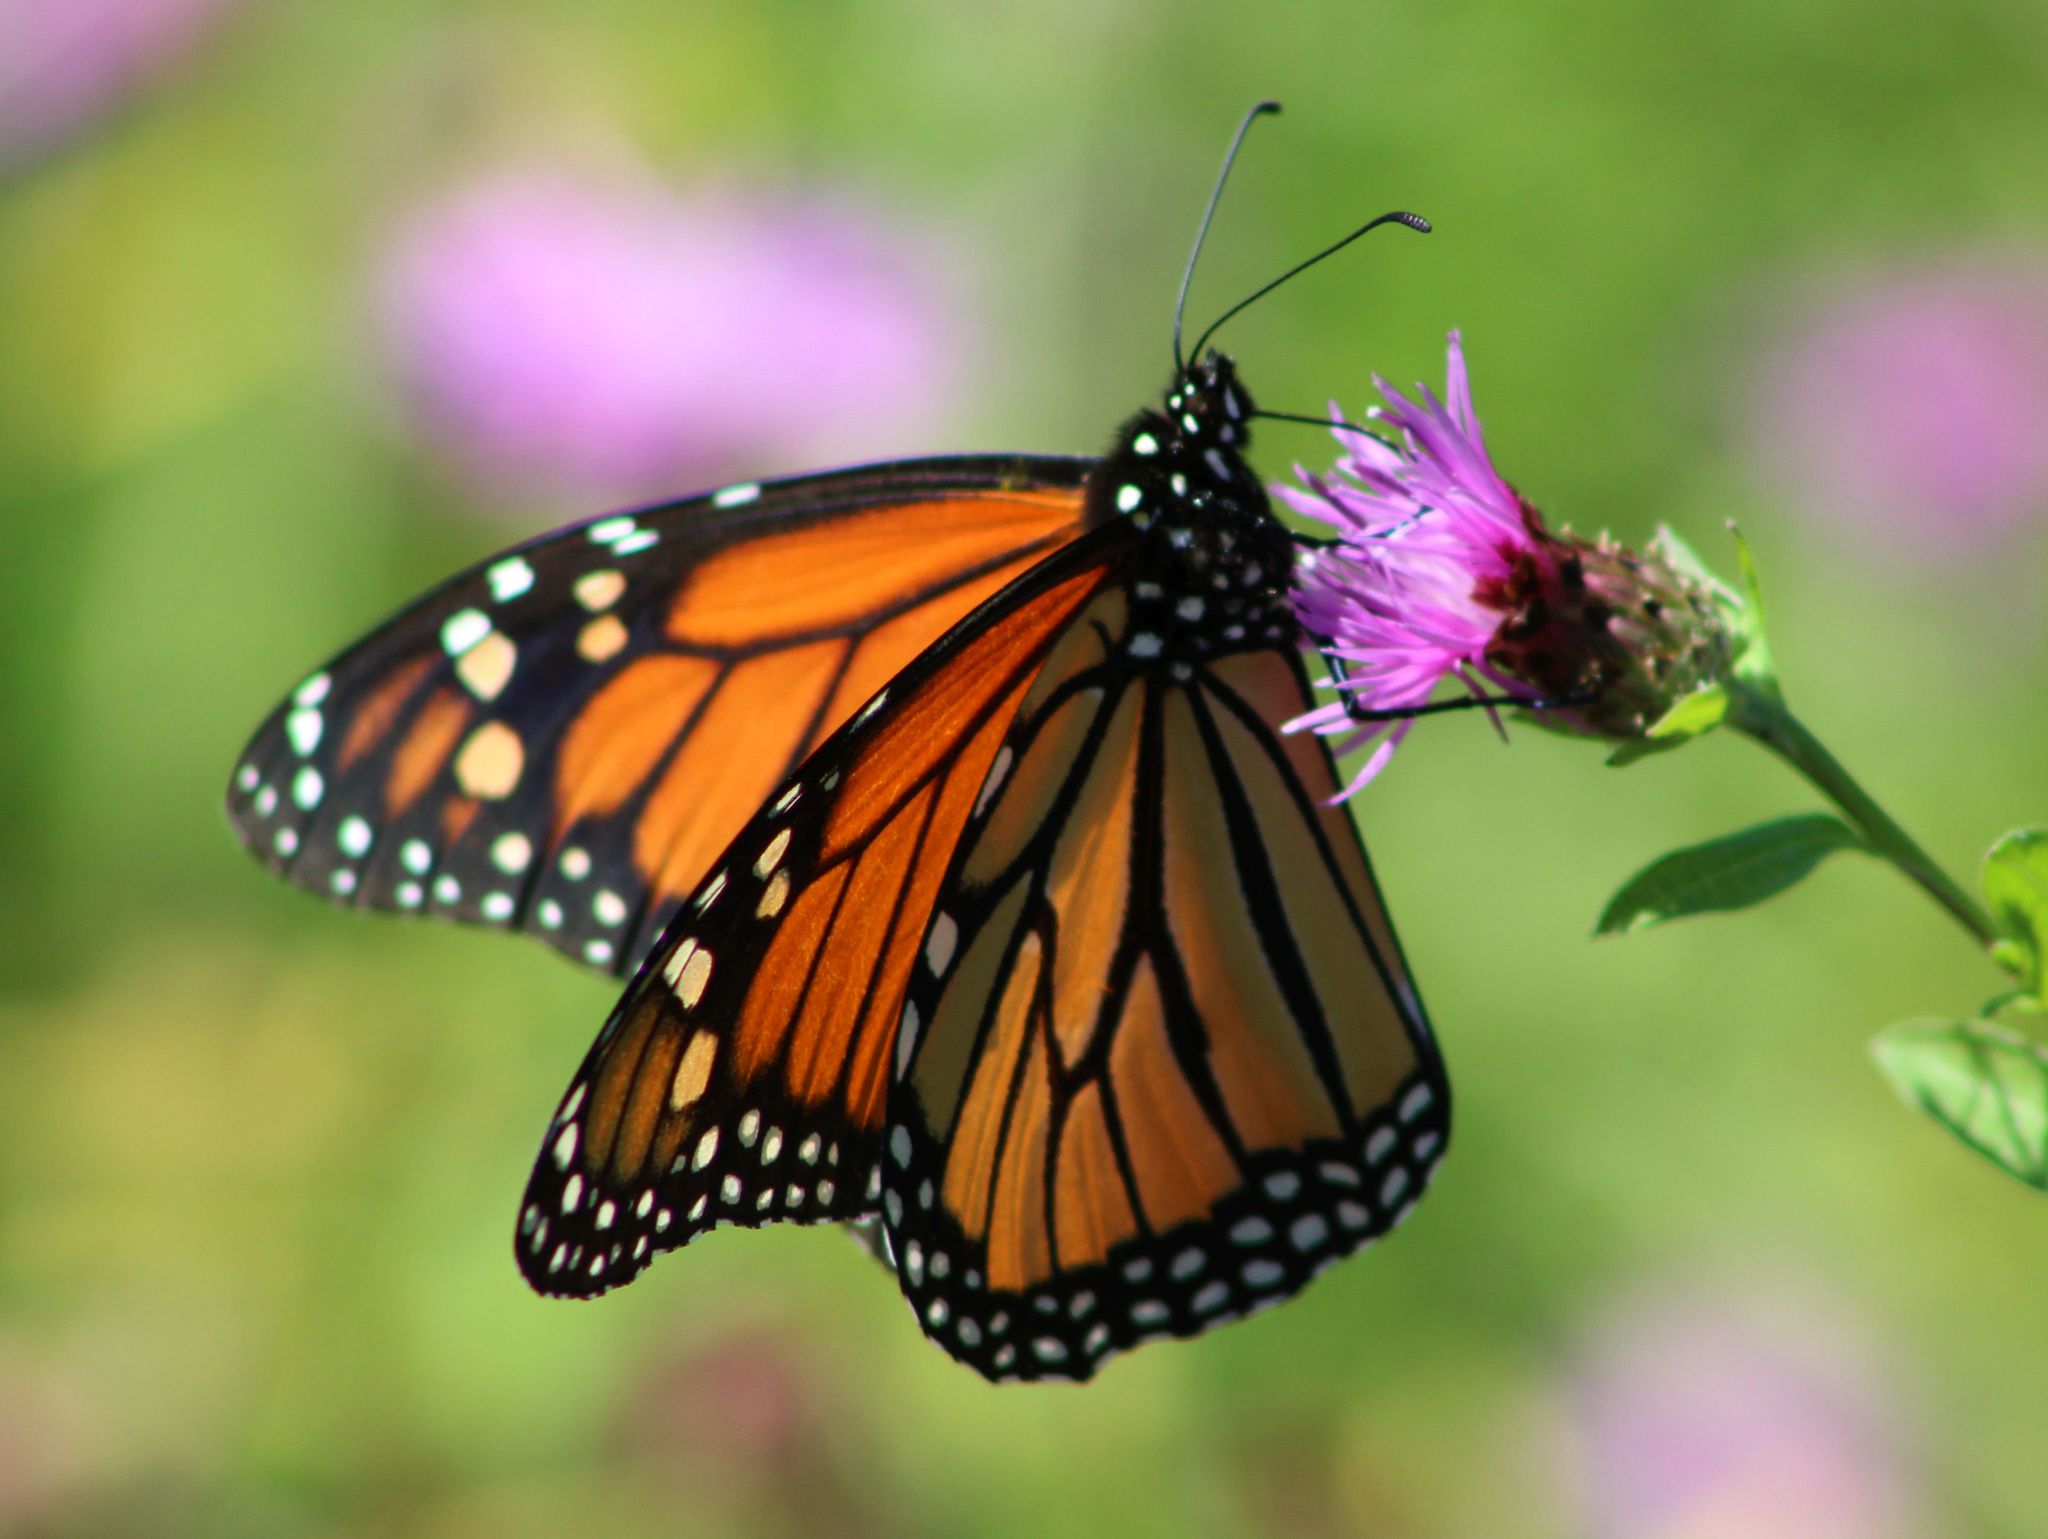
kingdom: Animalia
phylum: Arthropoda
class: Insecta
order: Lepidoptera
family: Nymphalidae
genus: Danaus
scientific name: Danaus plexippus
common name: Monarch
